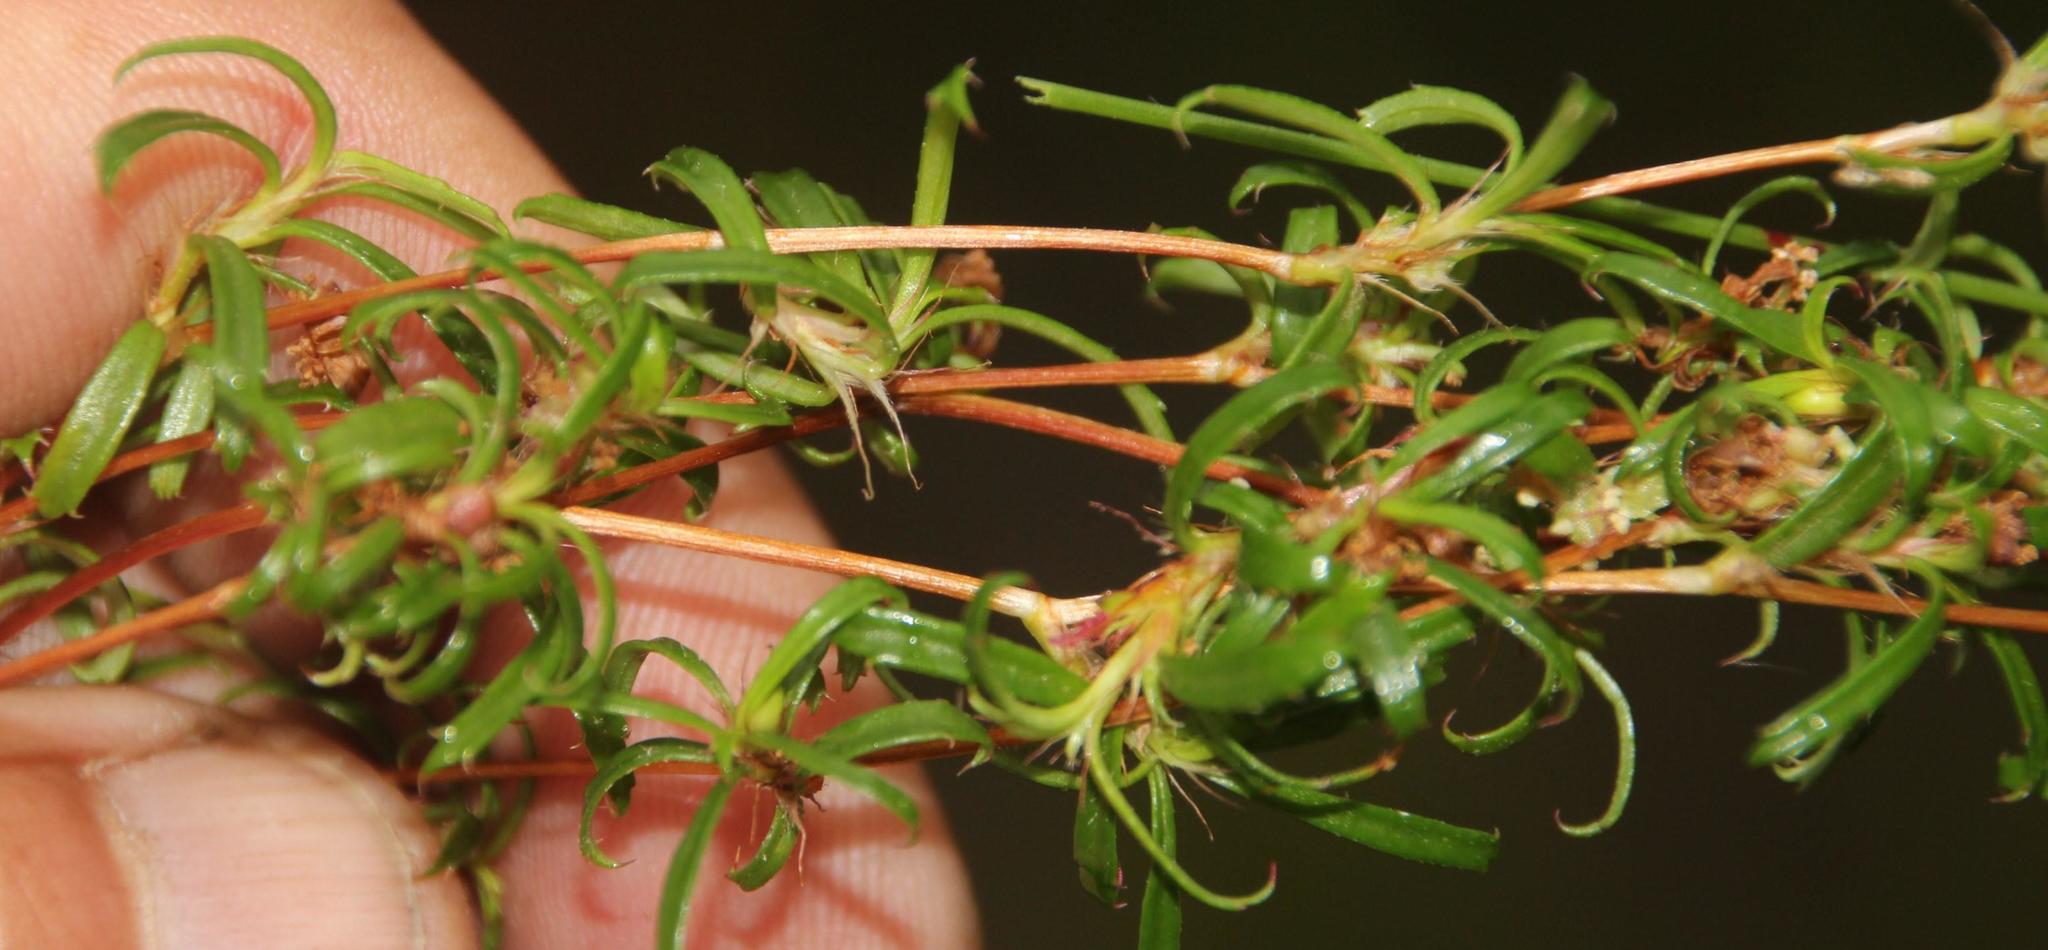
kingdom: Plantae
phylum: Tracheophyta
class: Magnoliopsida
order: Rosales
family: Rosaceae
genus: Cliffortia
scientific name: Cliffortia ferruginea
